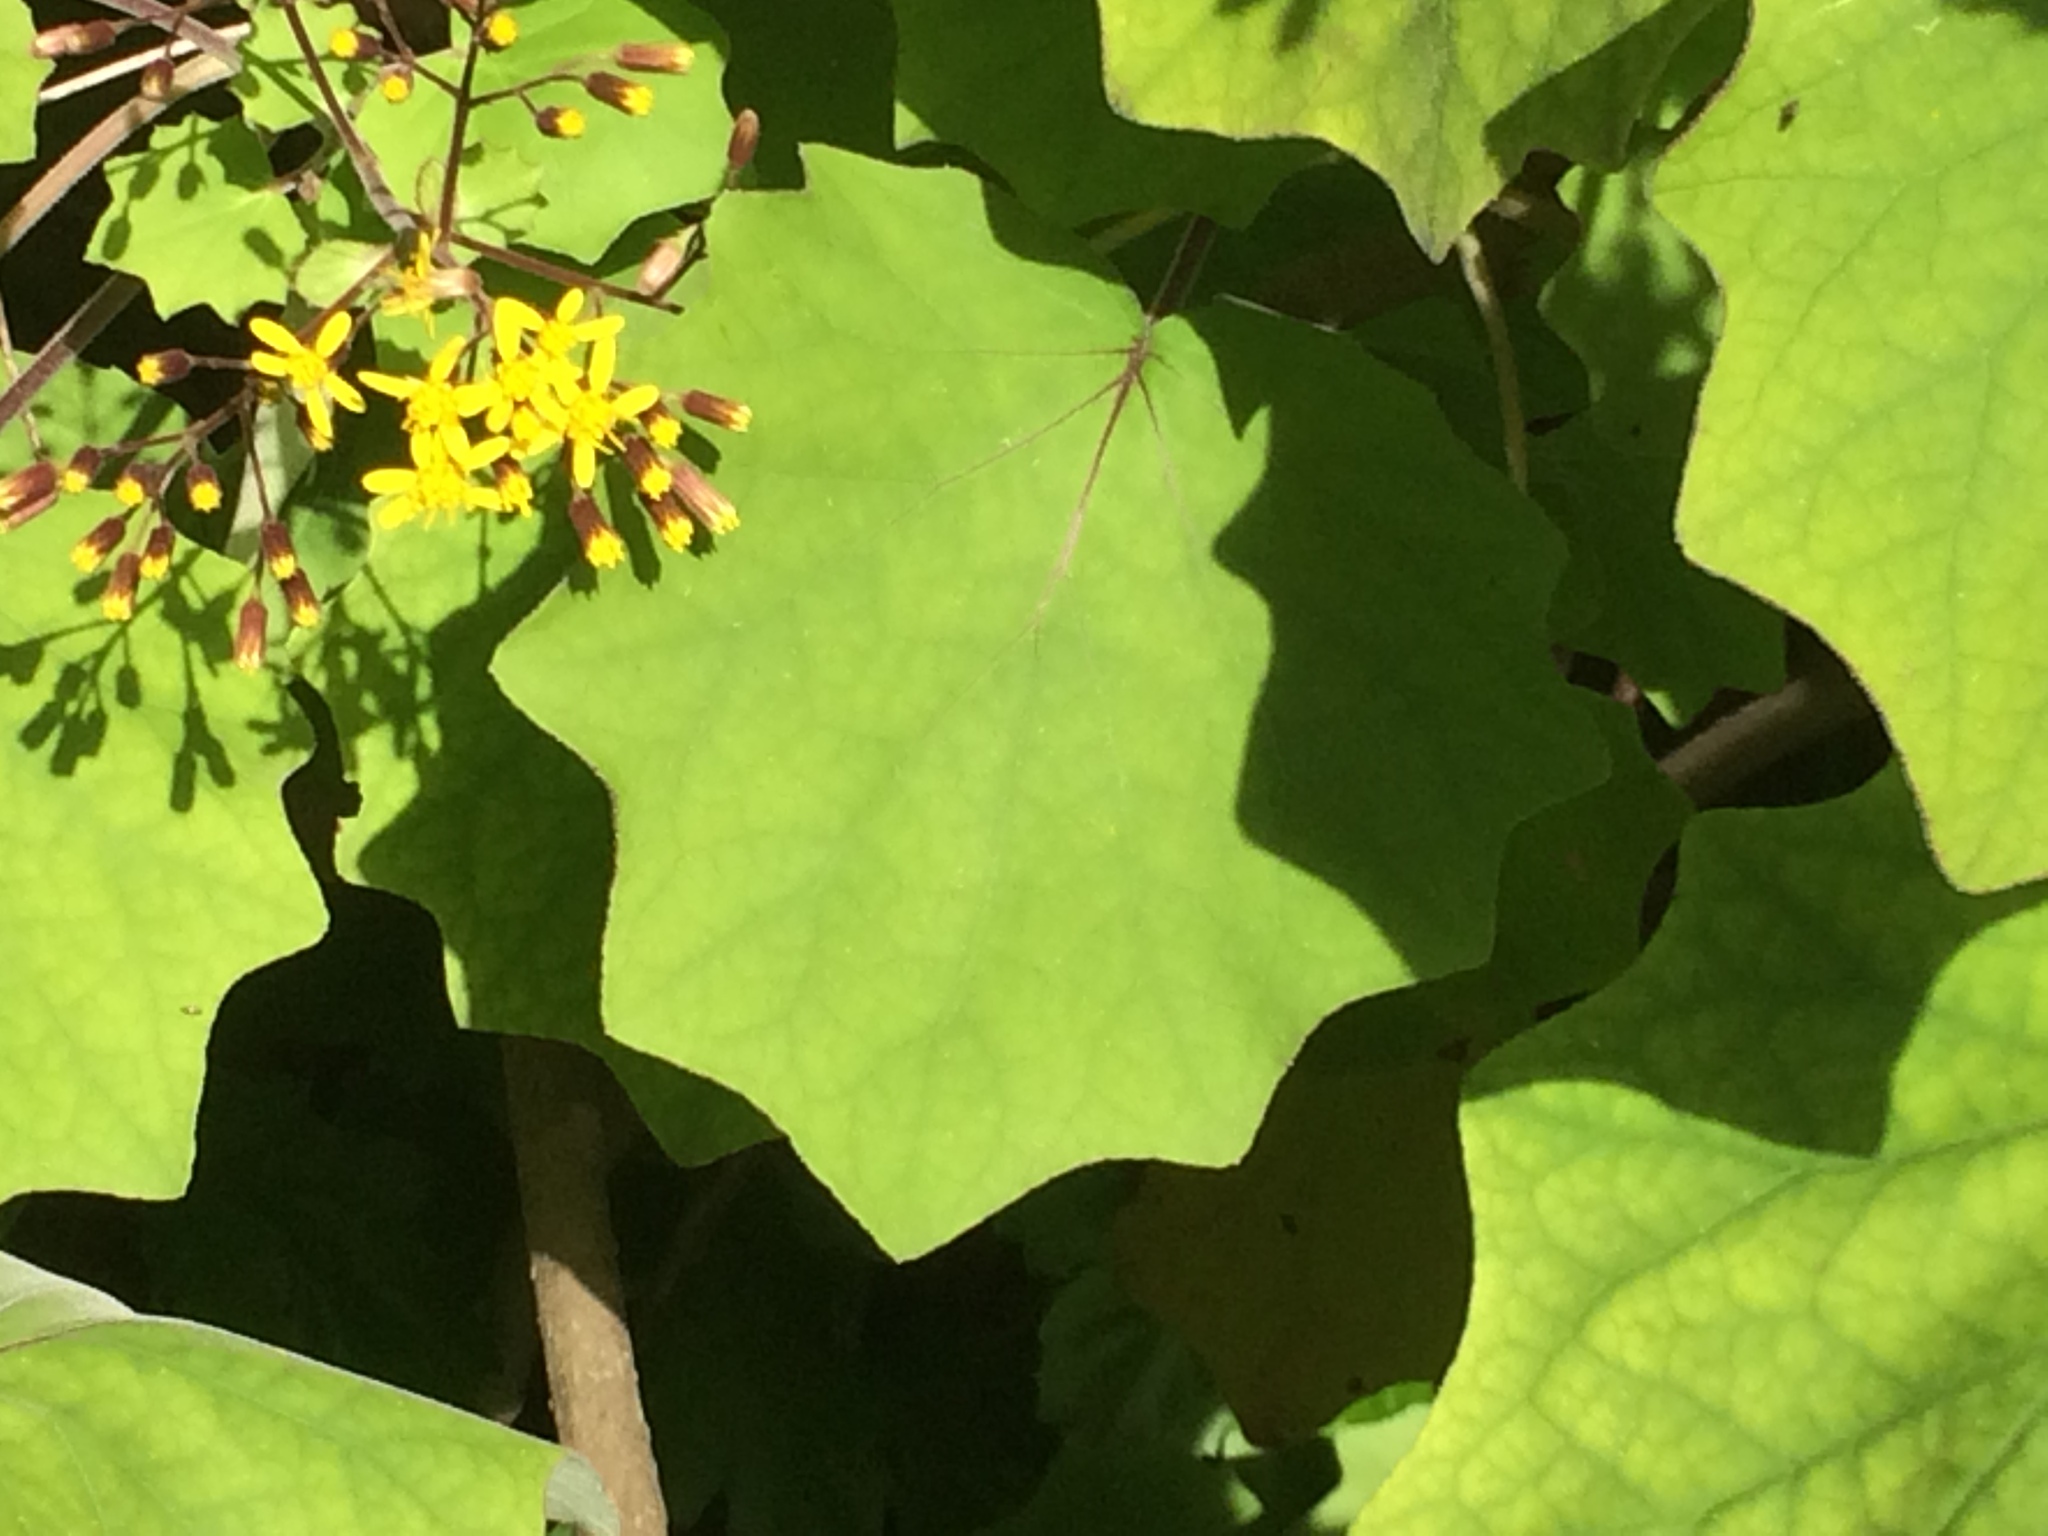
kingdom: Plantae
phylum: Tracheophyta
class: Magnoliopsida
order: Asterales
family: Asteraceae
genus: Roldana
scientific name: Roldana petasitis
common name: California-geranium
